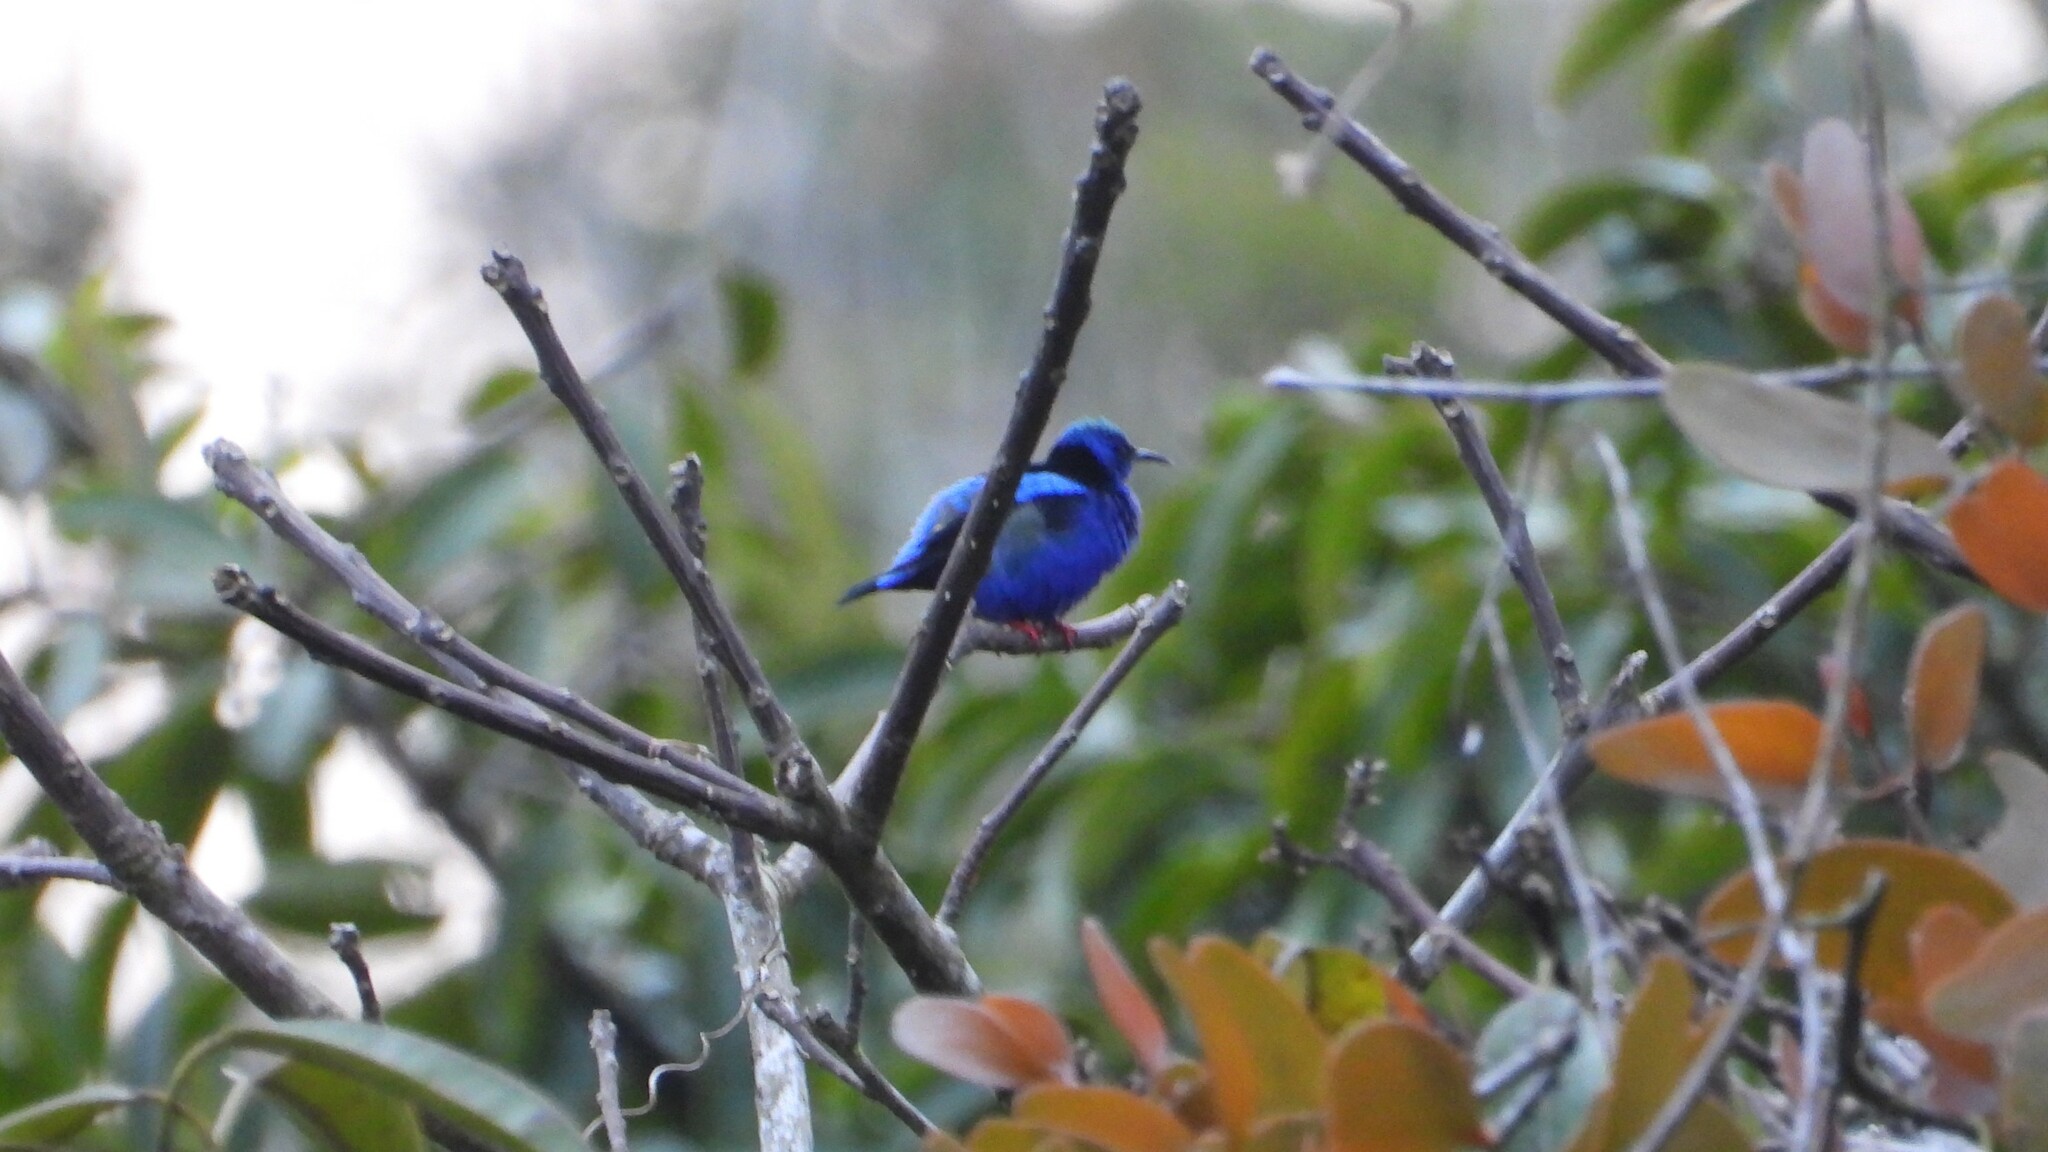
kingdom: Animalia
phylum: Chordata
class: Aves
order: Passeriformes
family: Thraupidae
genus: Cyanerpes
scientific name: Cyanerpes cyaneus
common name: Red-legged honeycreeper
